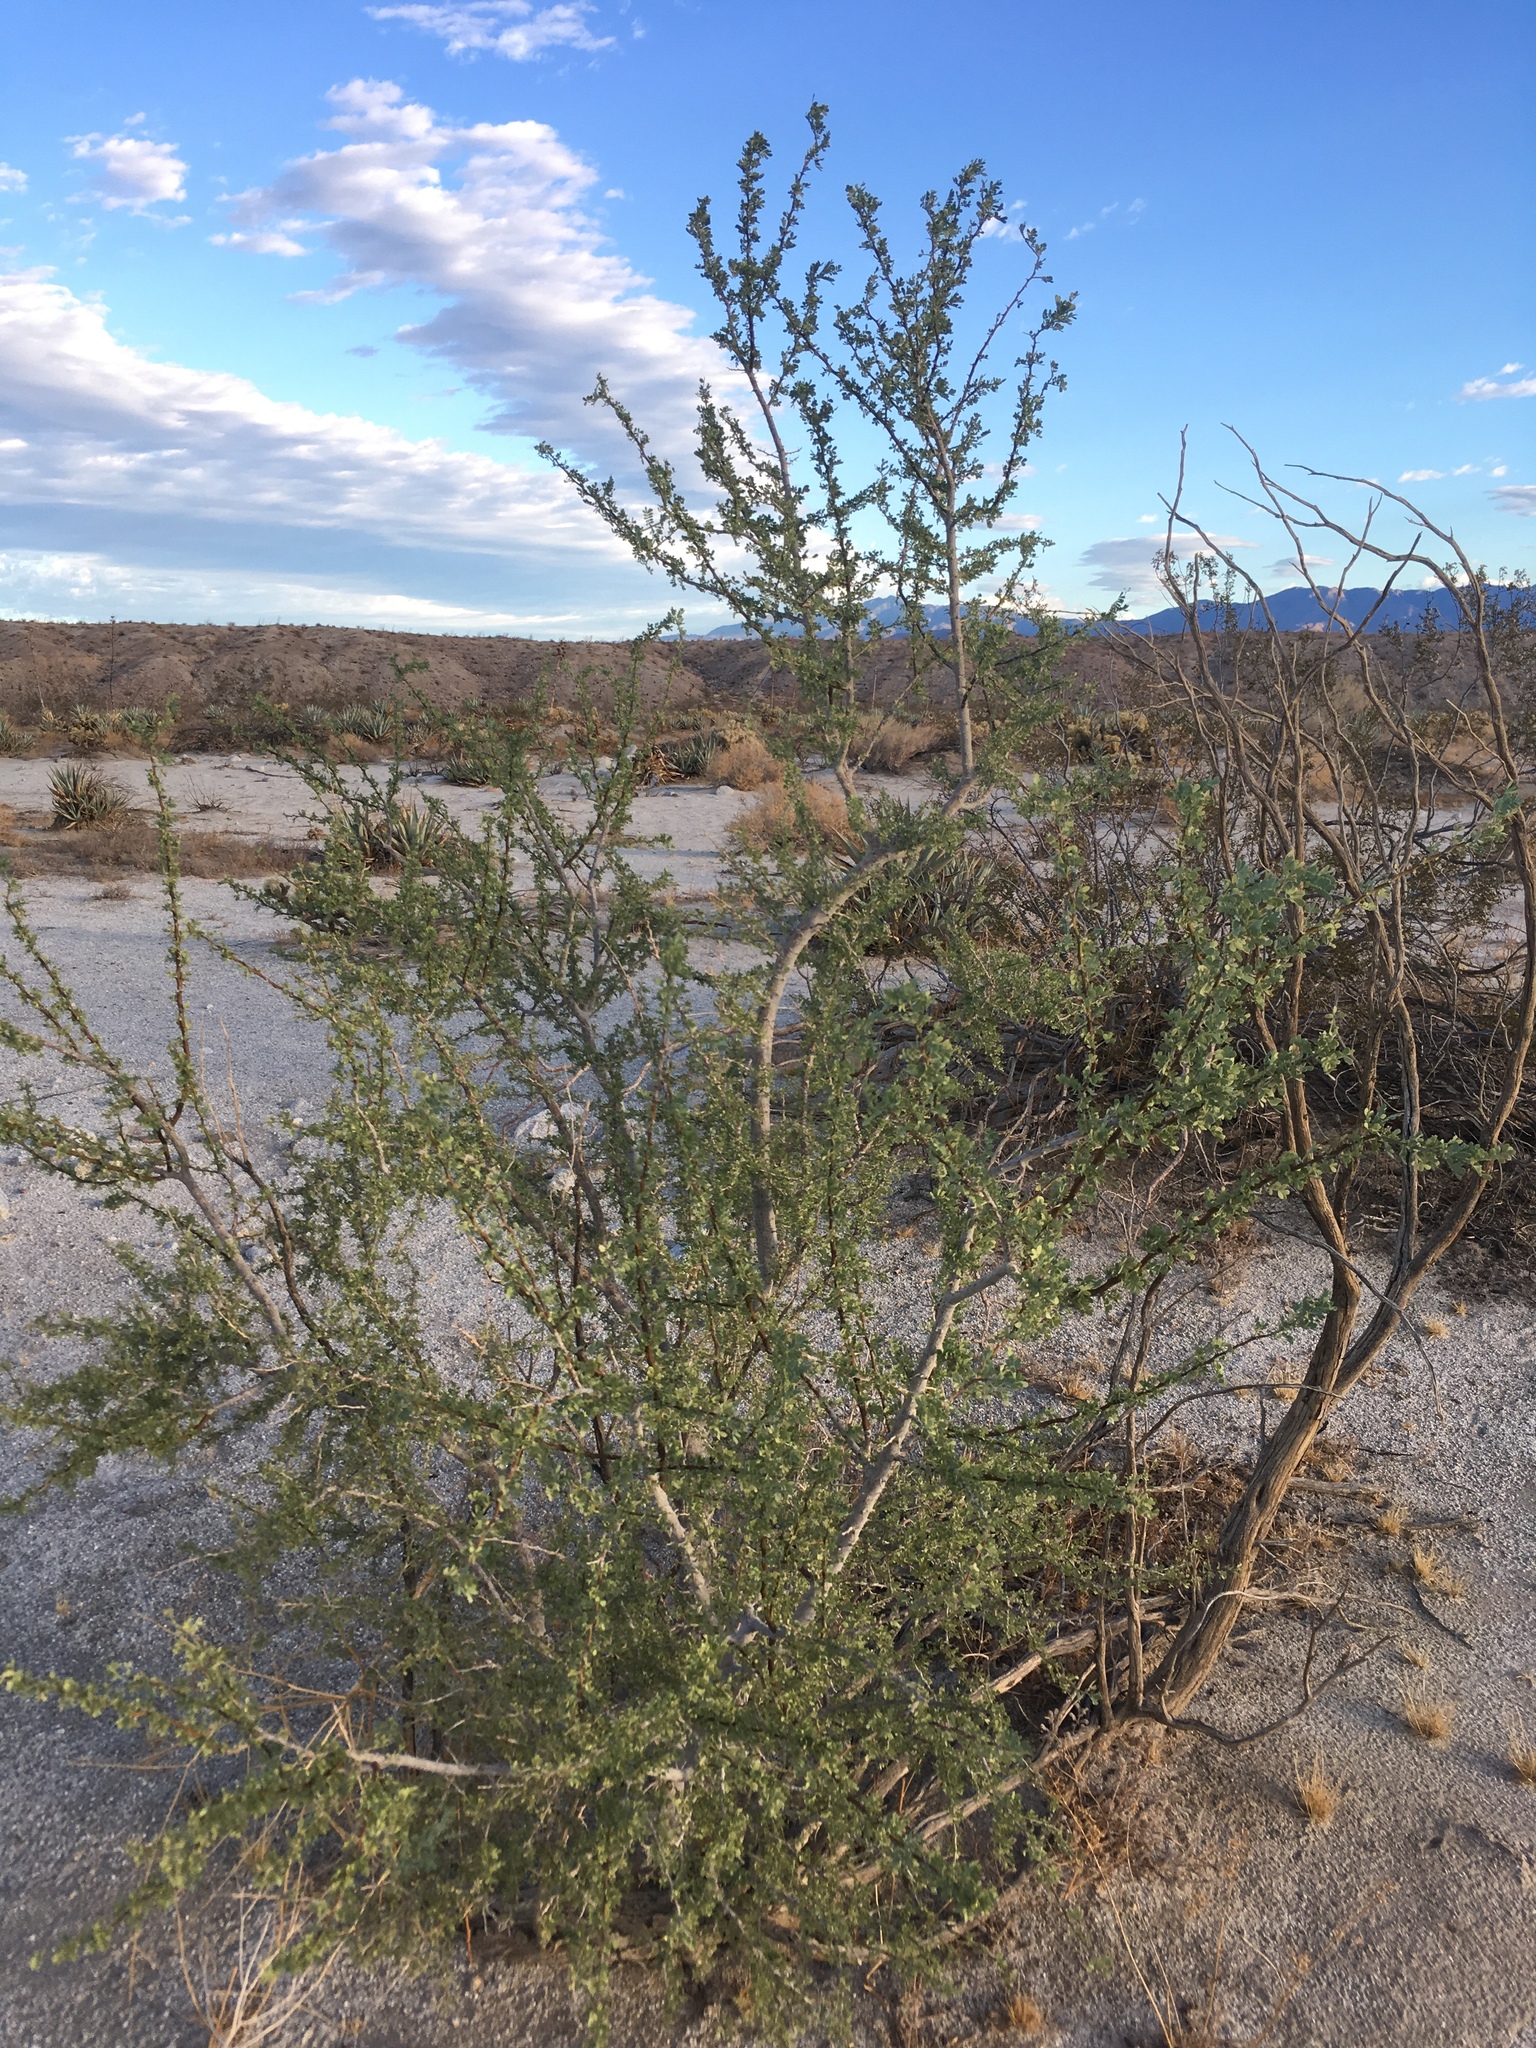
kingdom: Plantae
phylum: Tracheophyta
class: Magnoliopsida
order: Fabales
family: Fabaceae
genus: Olneya
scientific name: Olneya tesota
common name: Desert ironwood
